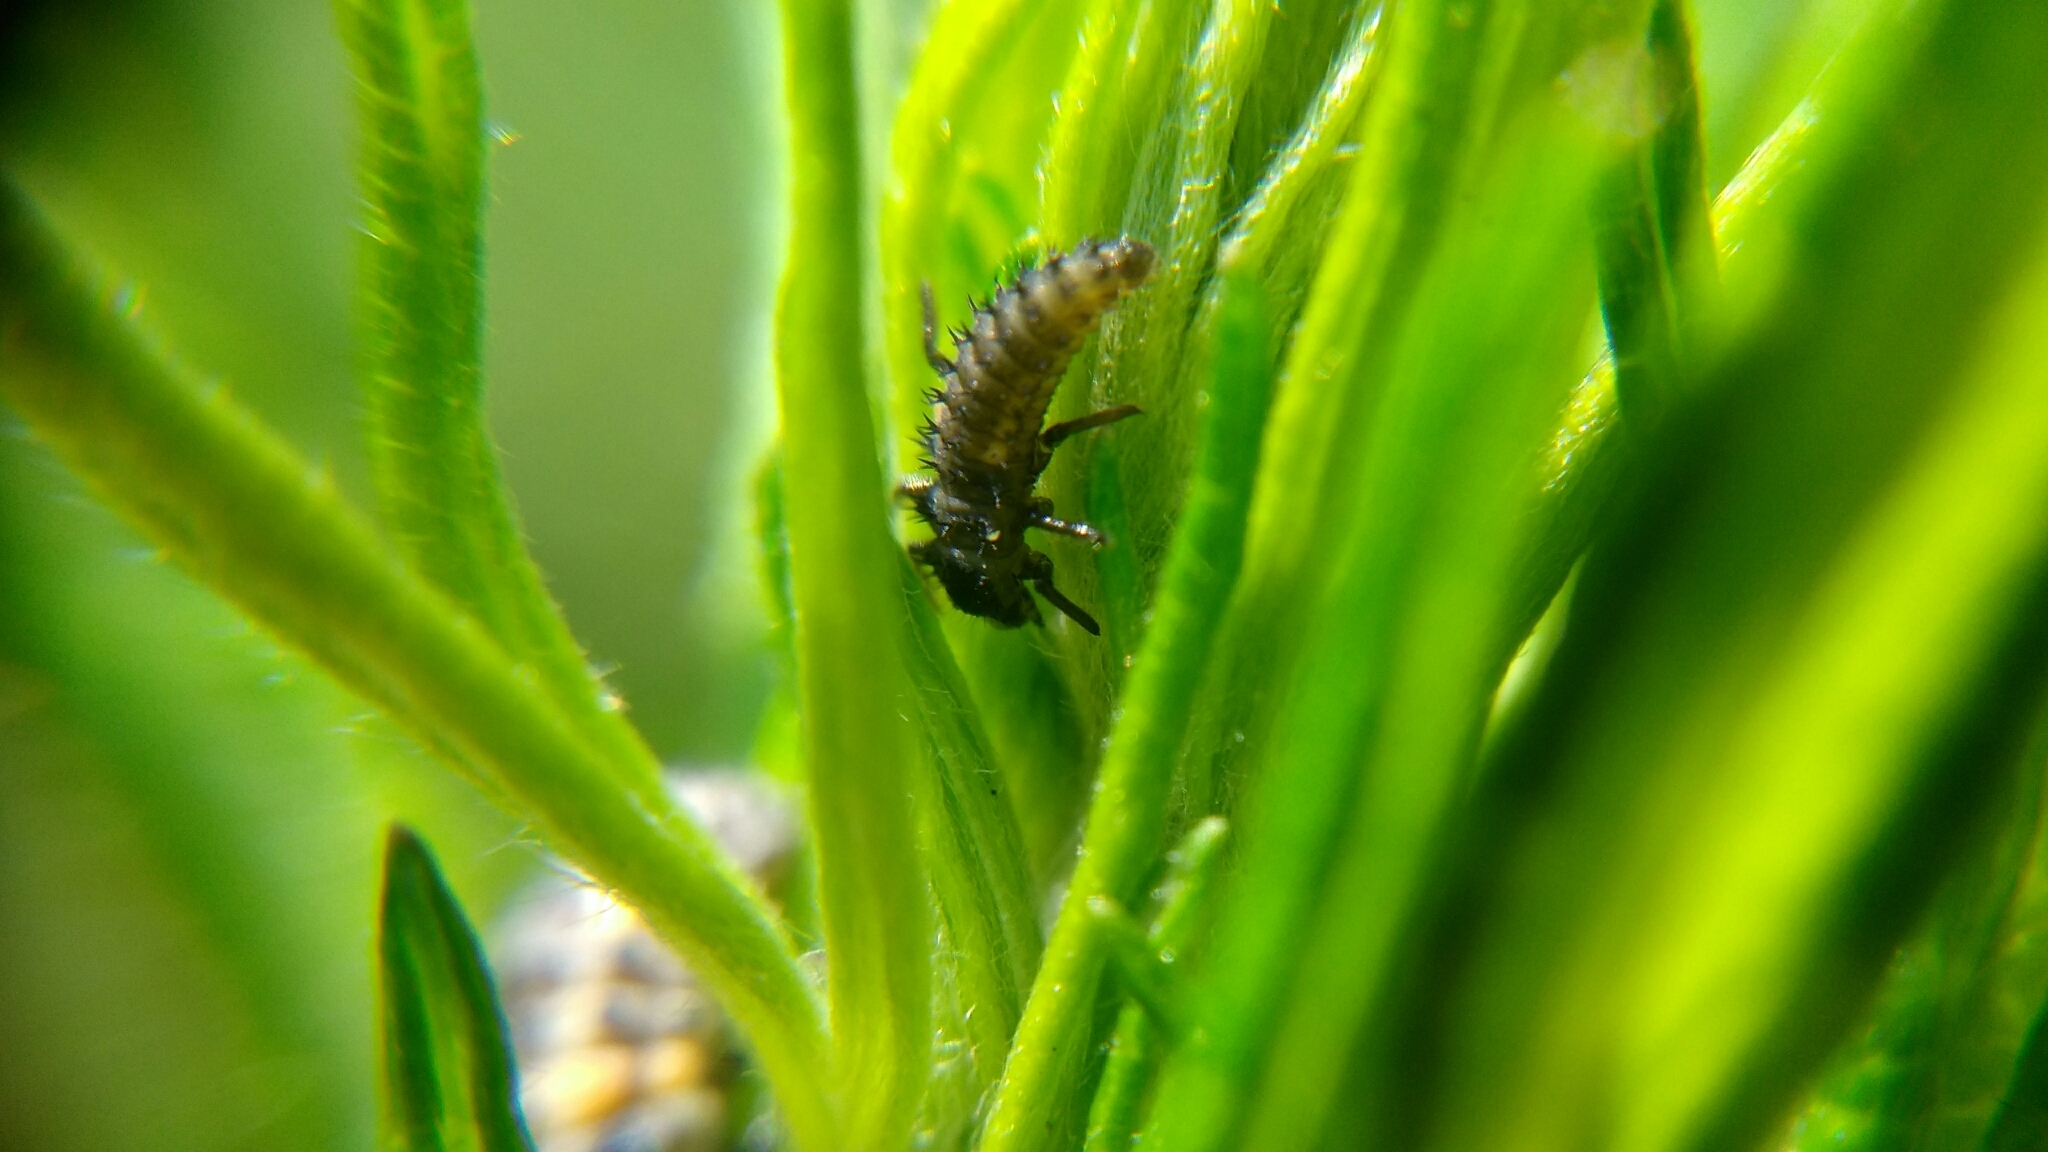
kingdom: Animalia
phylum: Arthropoda
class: Insecta
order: Coleoptera
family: Coccinellidae
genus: Harmonia
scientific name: Harmonia axyridis
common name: Harlequin ladybird
